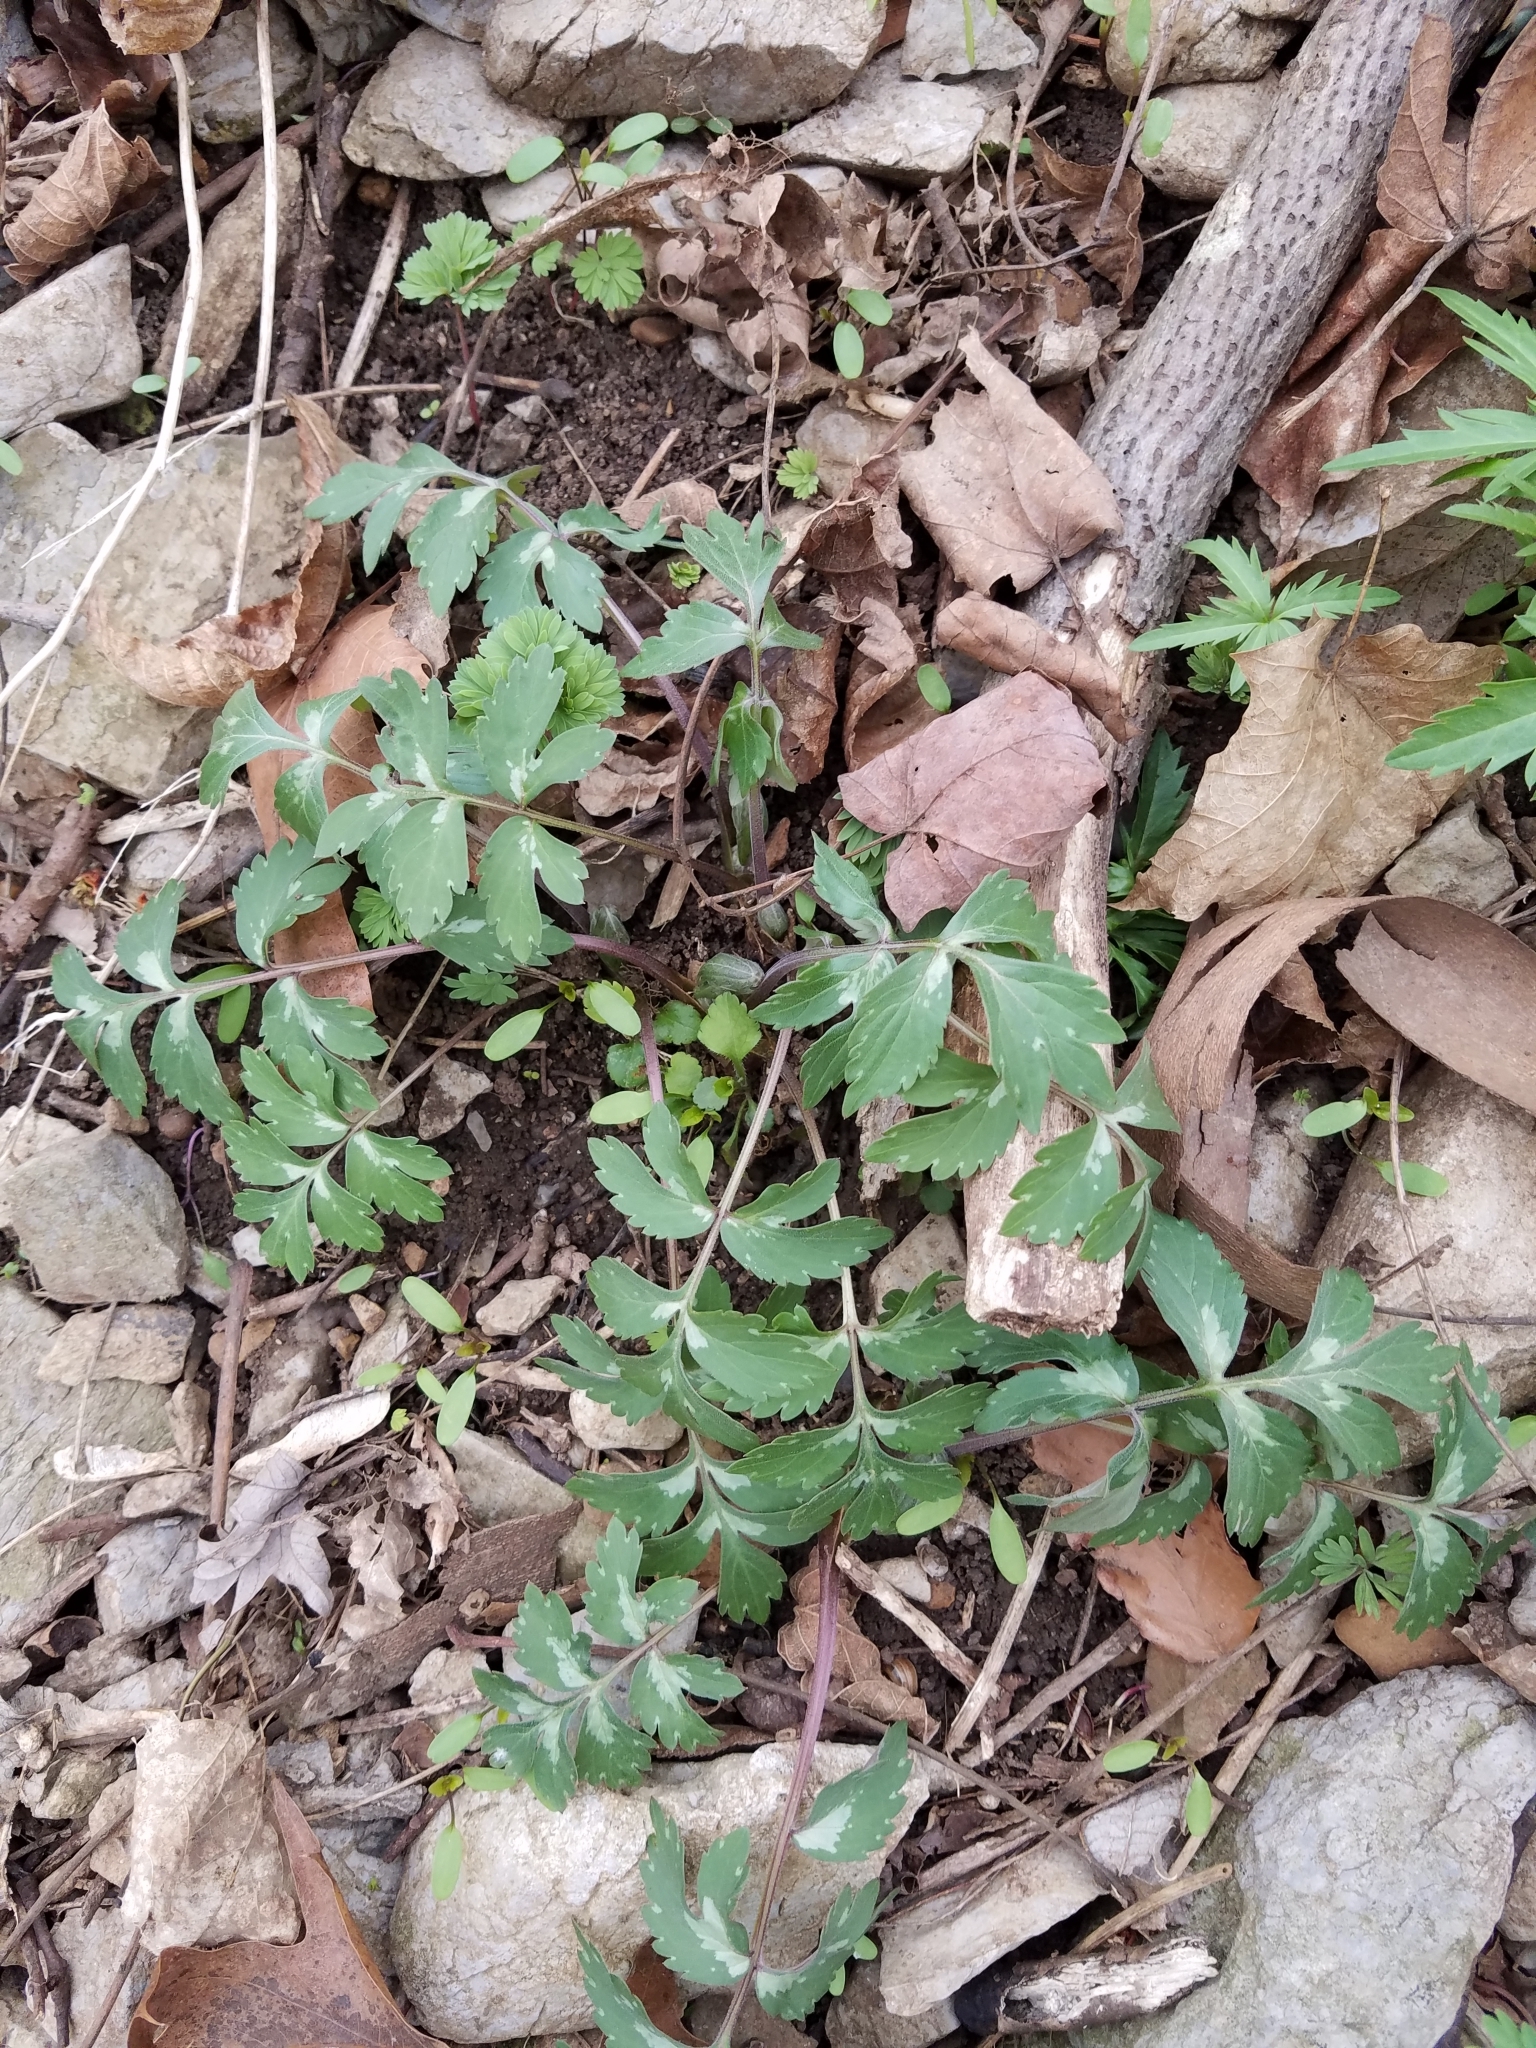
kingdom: Plantae
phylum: Tracheophyta
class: Magnoliopsida
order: Boraginales
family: Hydrophyllaceae
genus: Hydrophyllum
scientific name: Hydrophyllum virginianum
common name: Virginia waterleaf
